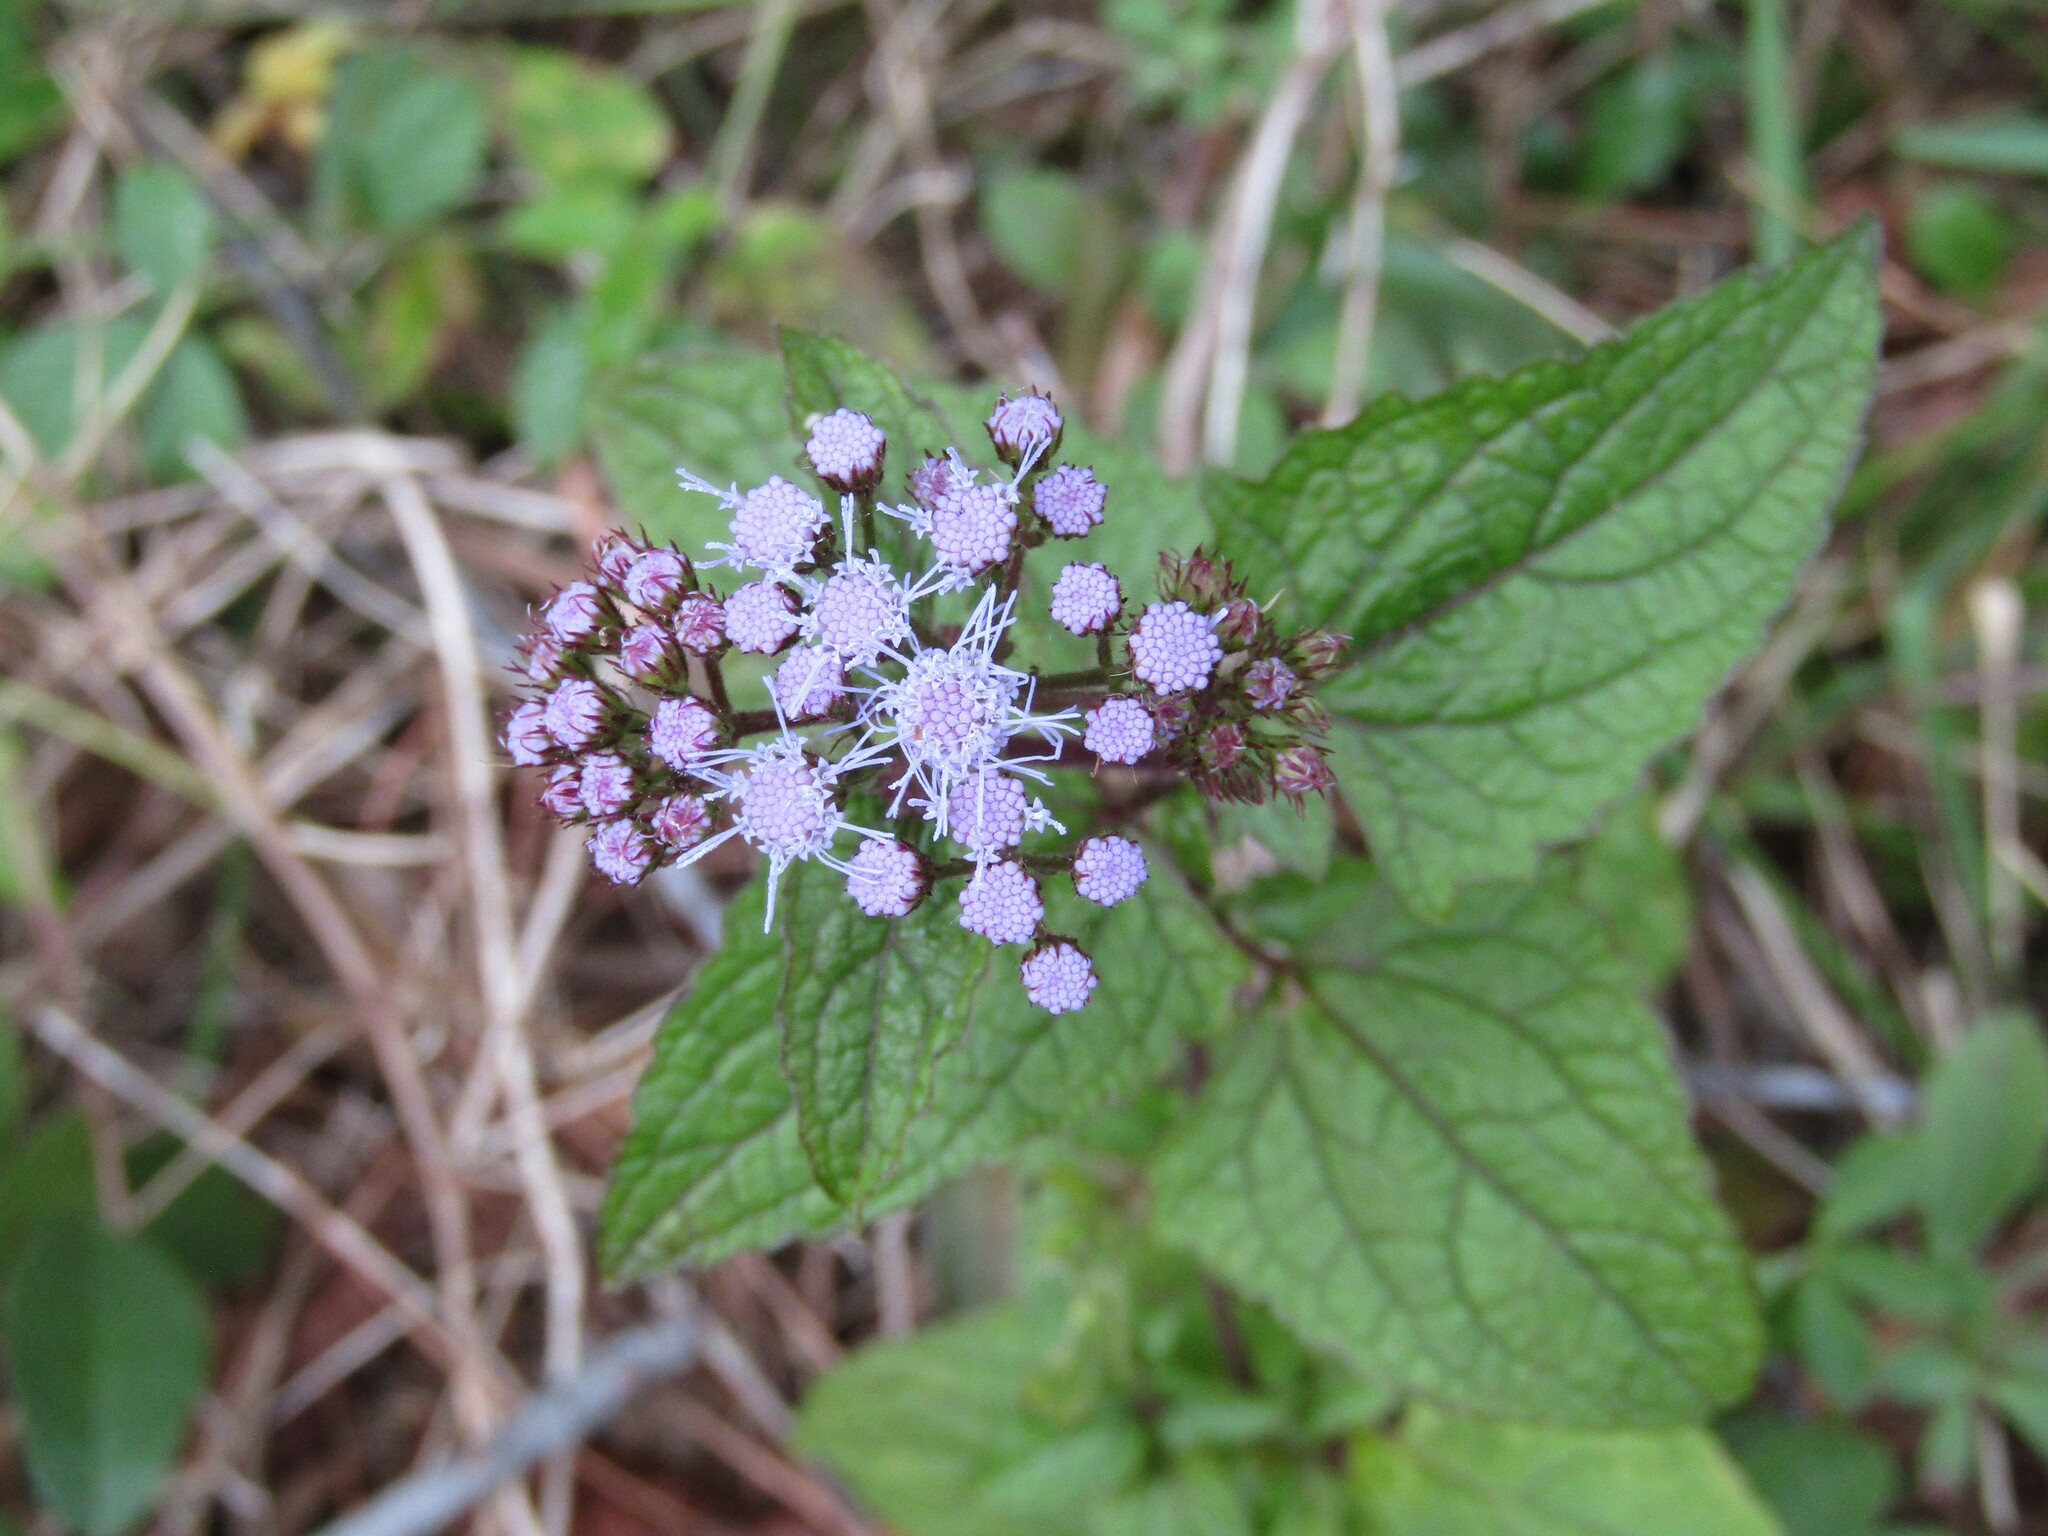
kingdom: Plantae
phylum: Tracheophyta
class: Magnoliopsida
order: Asterales
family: Asteraceae
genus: Conoclinium
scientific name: Conoclinium coelestinum
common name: Blue mistflower
